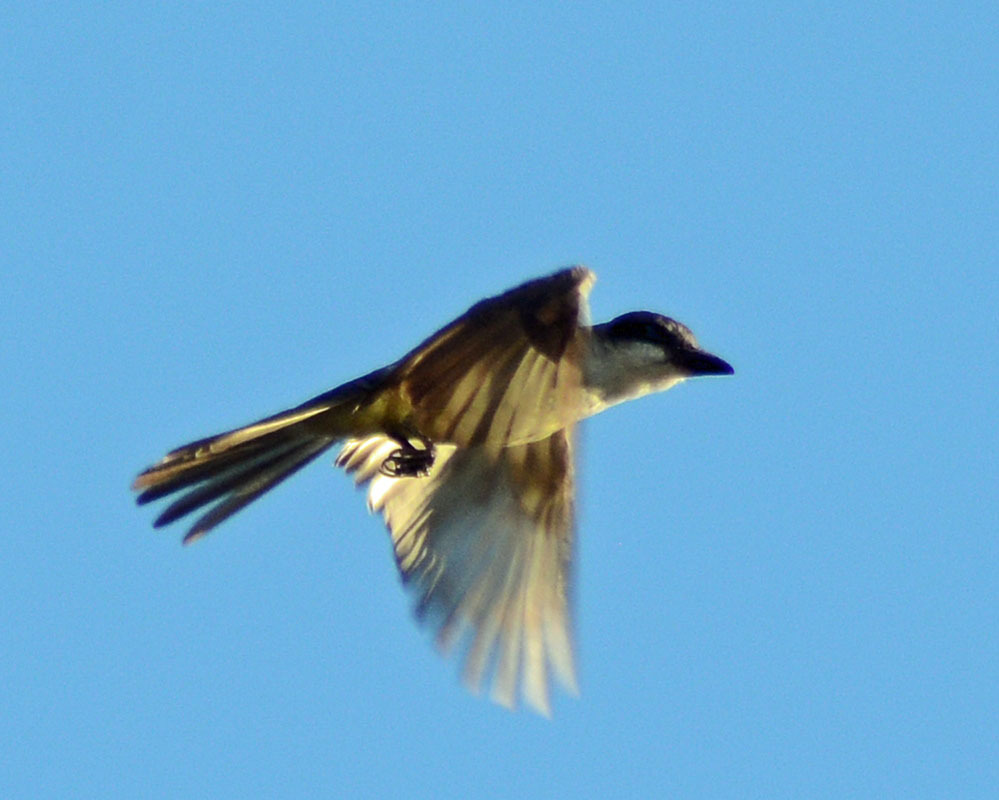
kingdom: Animalia
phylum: Chordata
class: Aves
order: Passeriformes
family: Tyrannidae
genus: Tyrannus
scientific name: Tyrannus crassirostris
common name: Thick-billed kingbird
